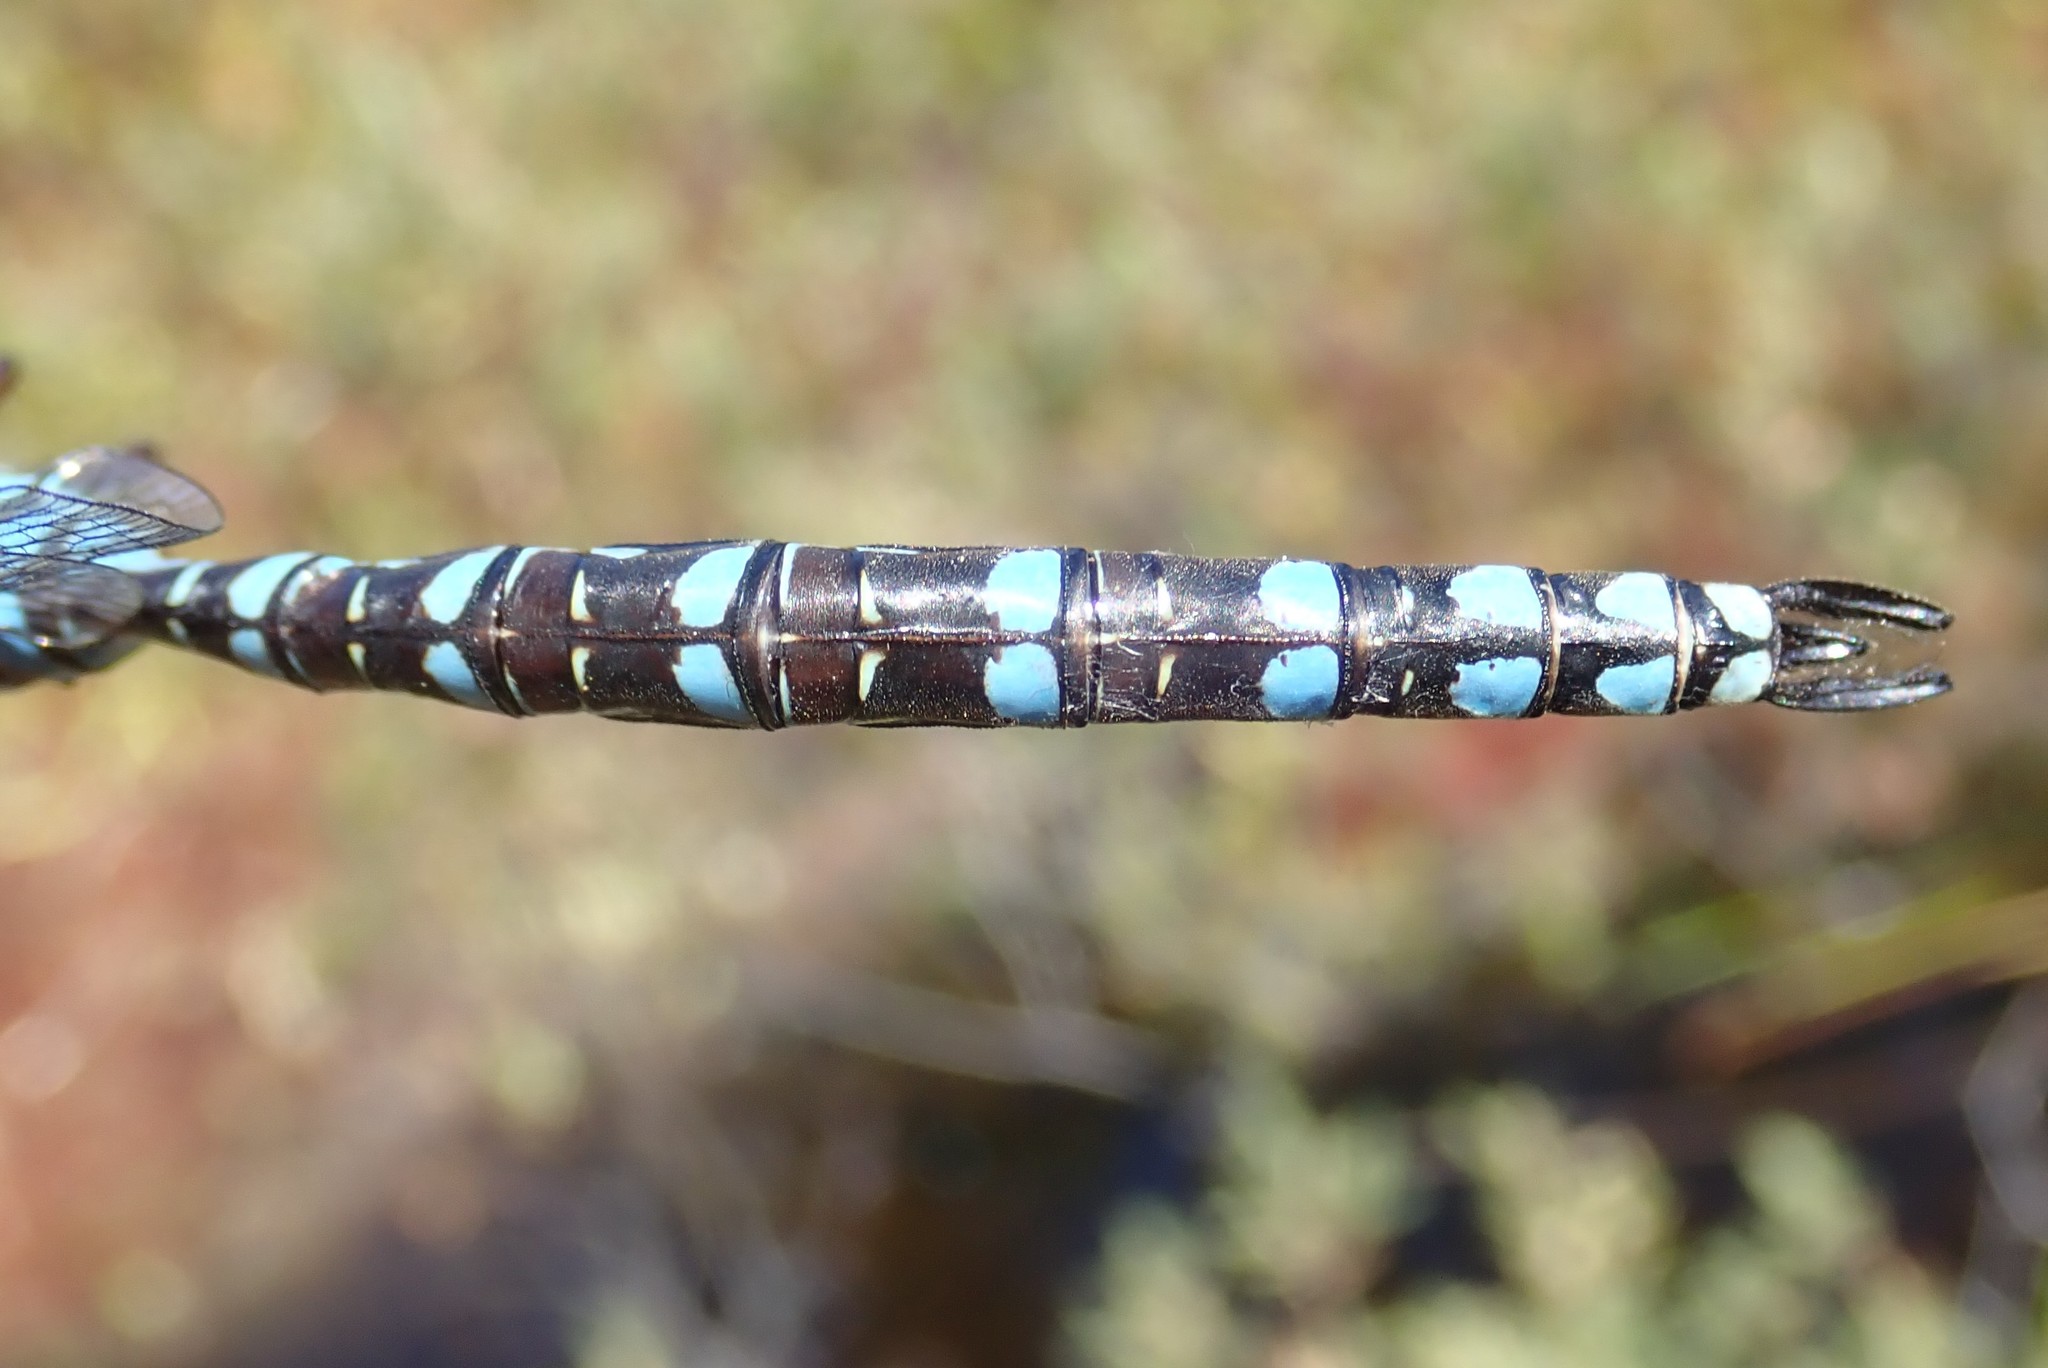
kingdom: Animalia
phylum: Arthropoda
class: Insecta
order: Odonata
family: Aeshnidae
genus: Aeshna
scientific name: Aeshna canadensis
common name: Canada darner
